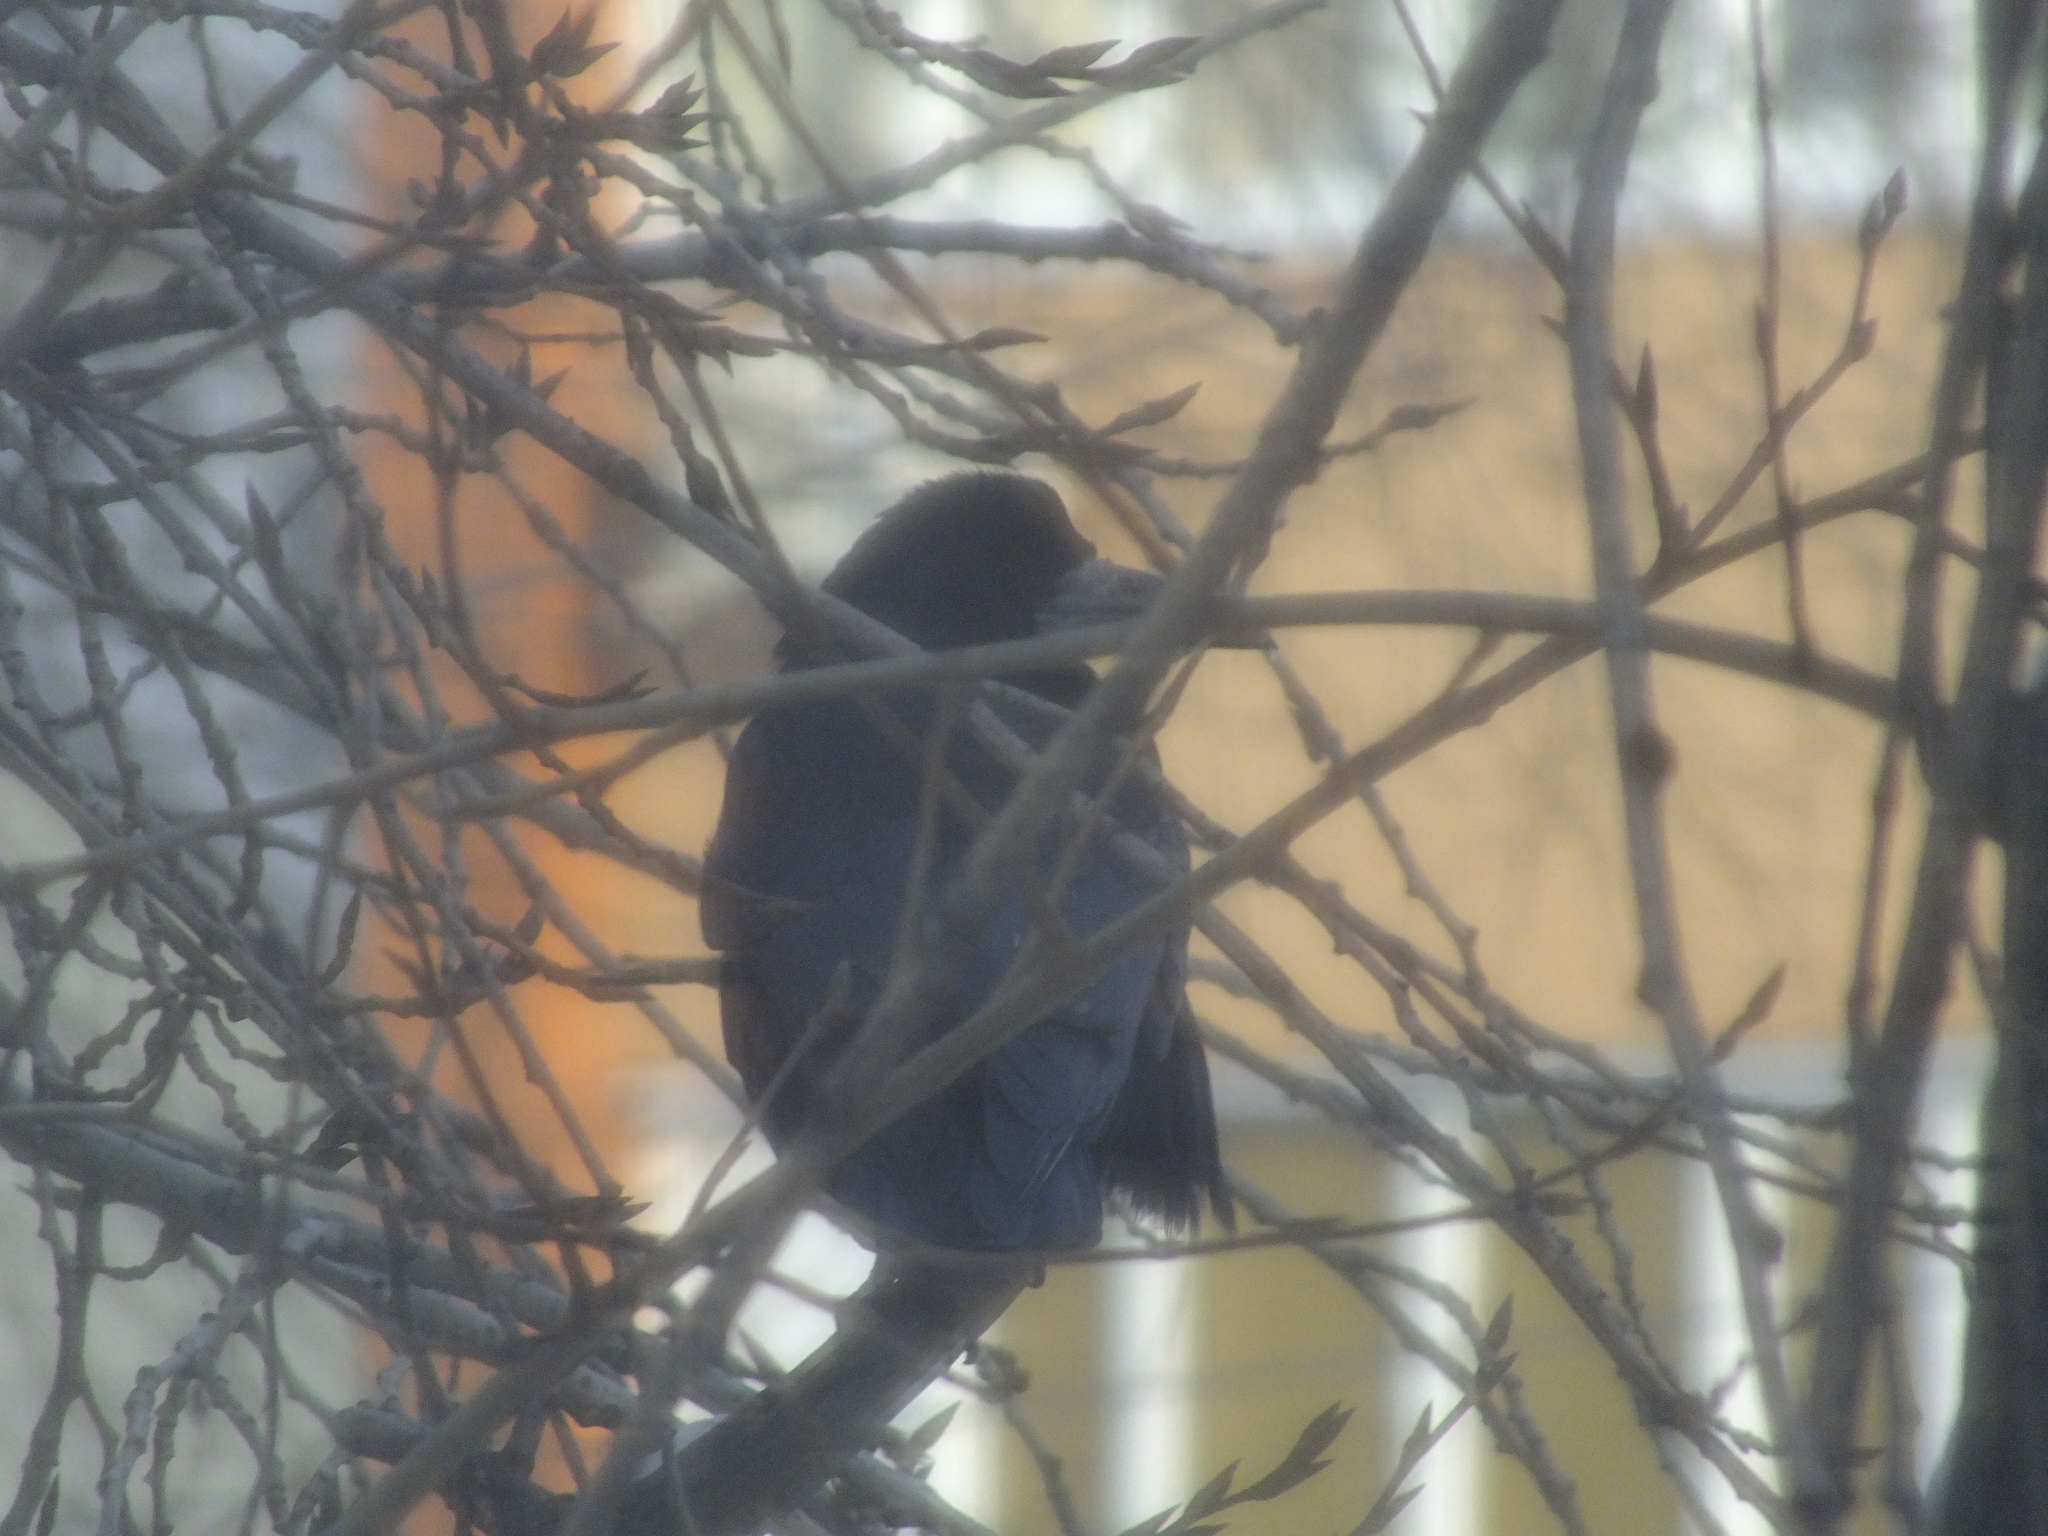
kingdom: Animalia
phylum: Chordata
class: Aves
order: Passeriformes
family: Corvidae
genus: Corvus
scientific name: Corvus frugilegus
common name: Rook
